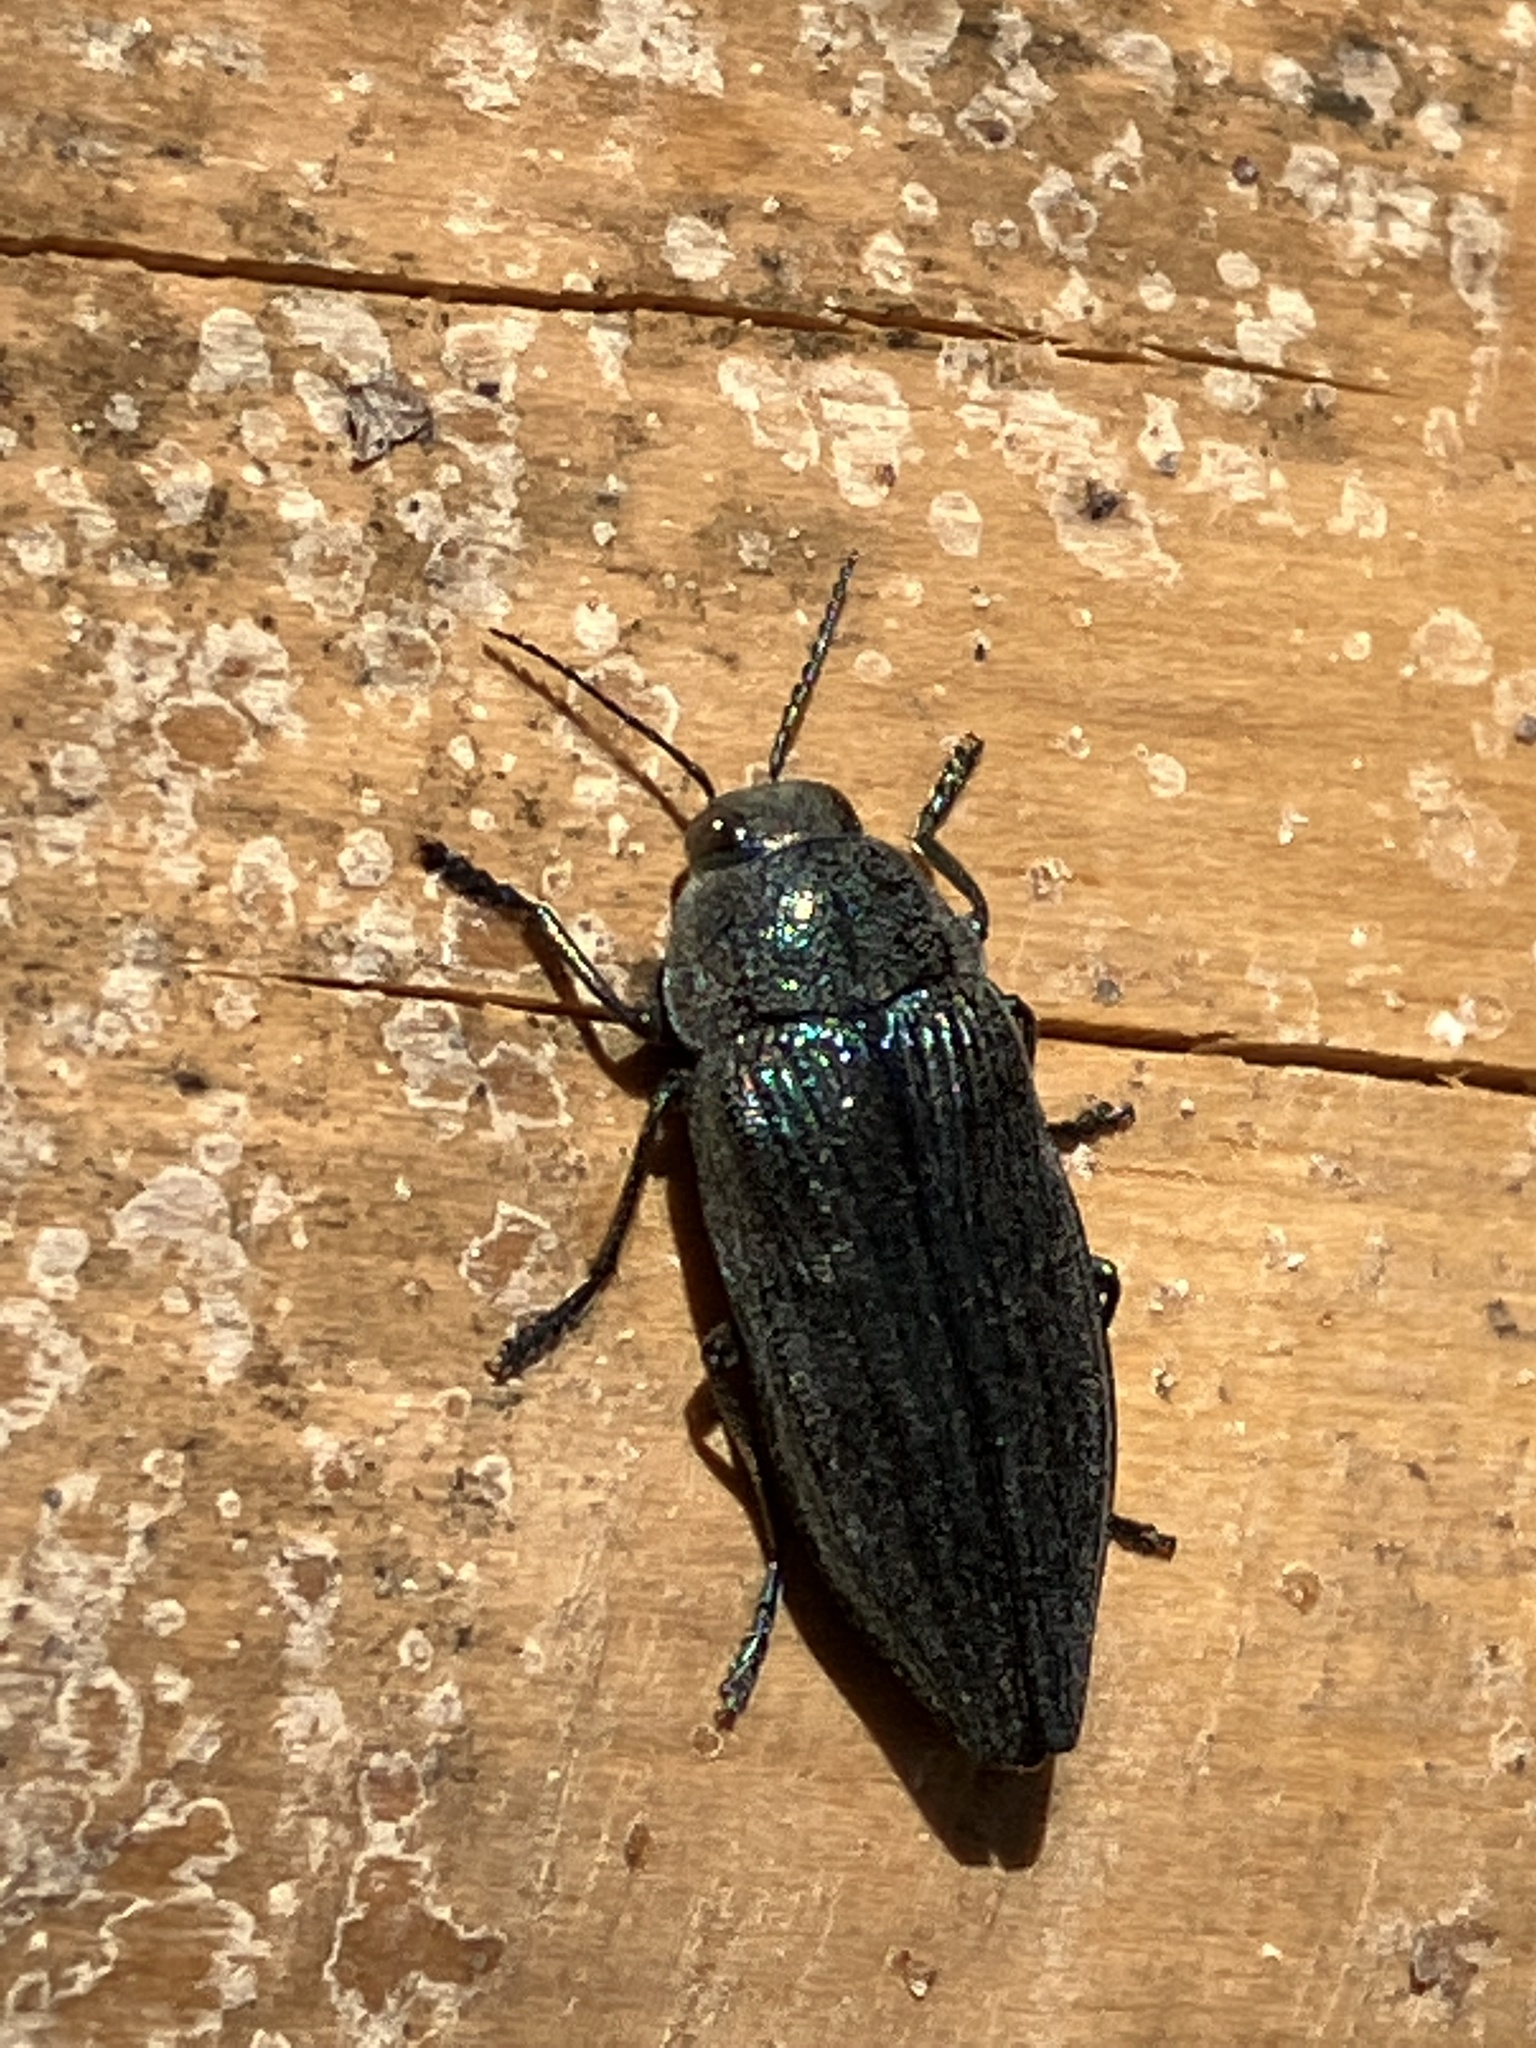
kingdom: Animalia
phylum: Arthropoda
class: Insecta
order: Coleoptera
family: Buprestidae
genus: Buprestis
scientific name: Buprestis rustica
